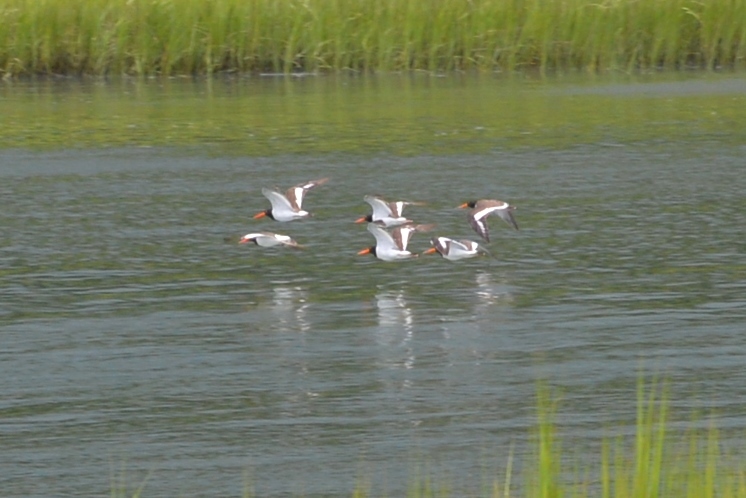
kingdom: Animalia
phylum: Chordata
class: Aves
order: Charadriiformes
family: Haematopodidae
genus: Haematopus
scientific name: Haematopus palliatus
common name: American oystercatcher
